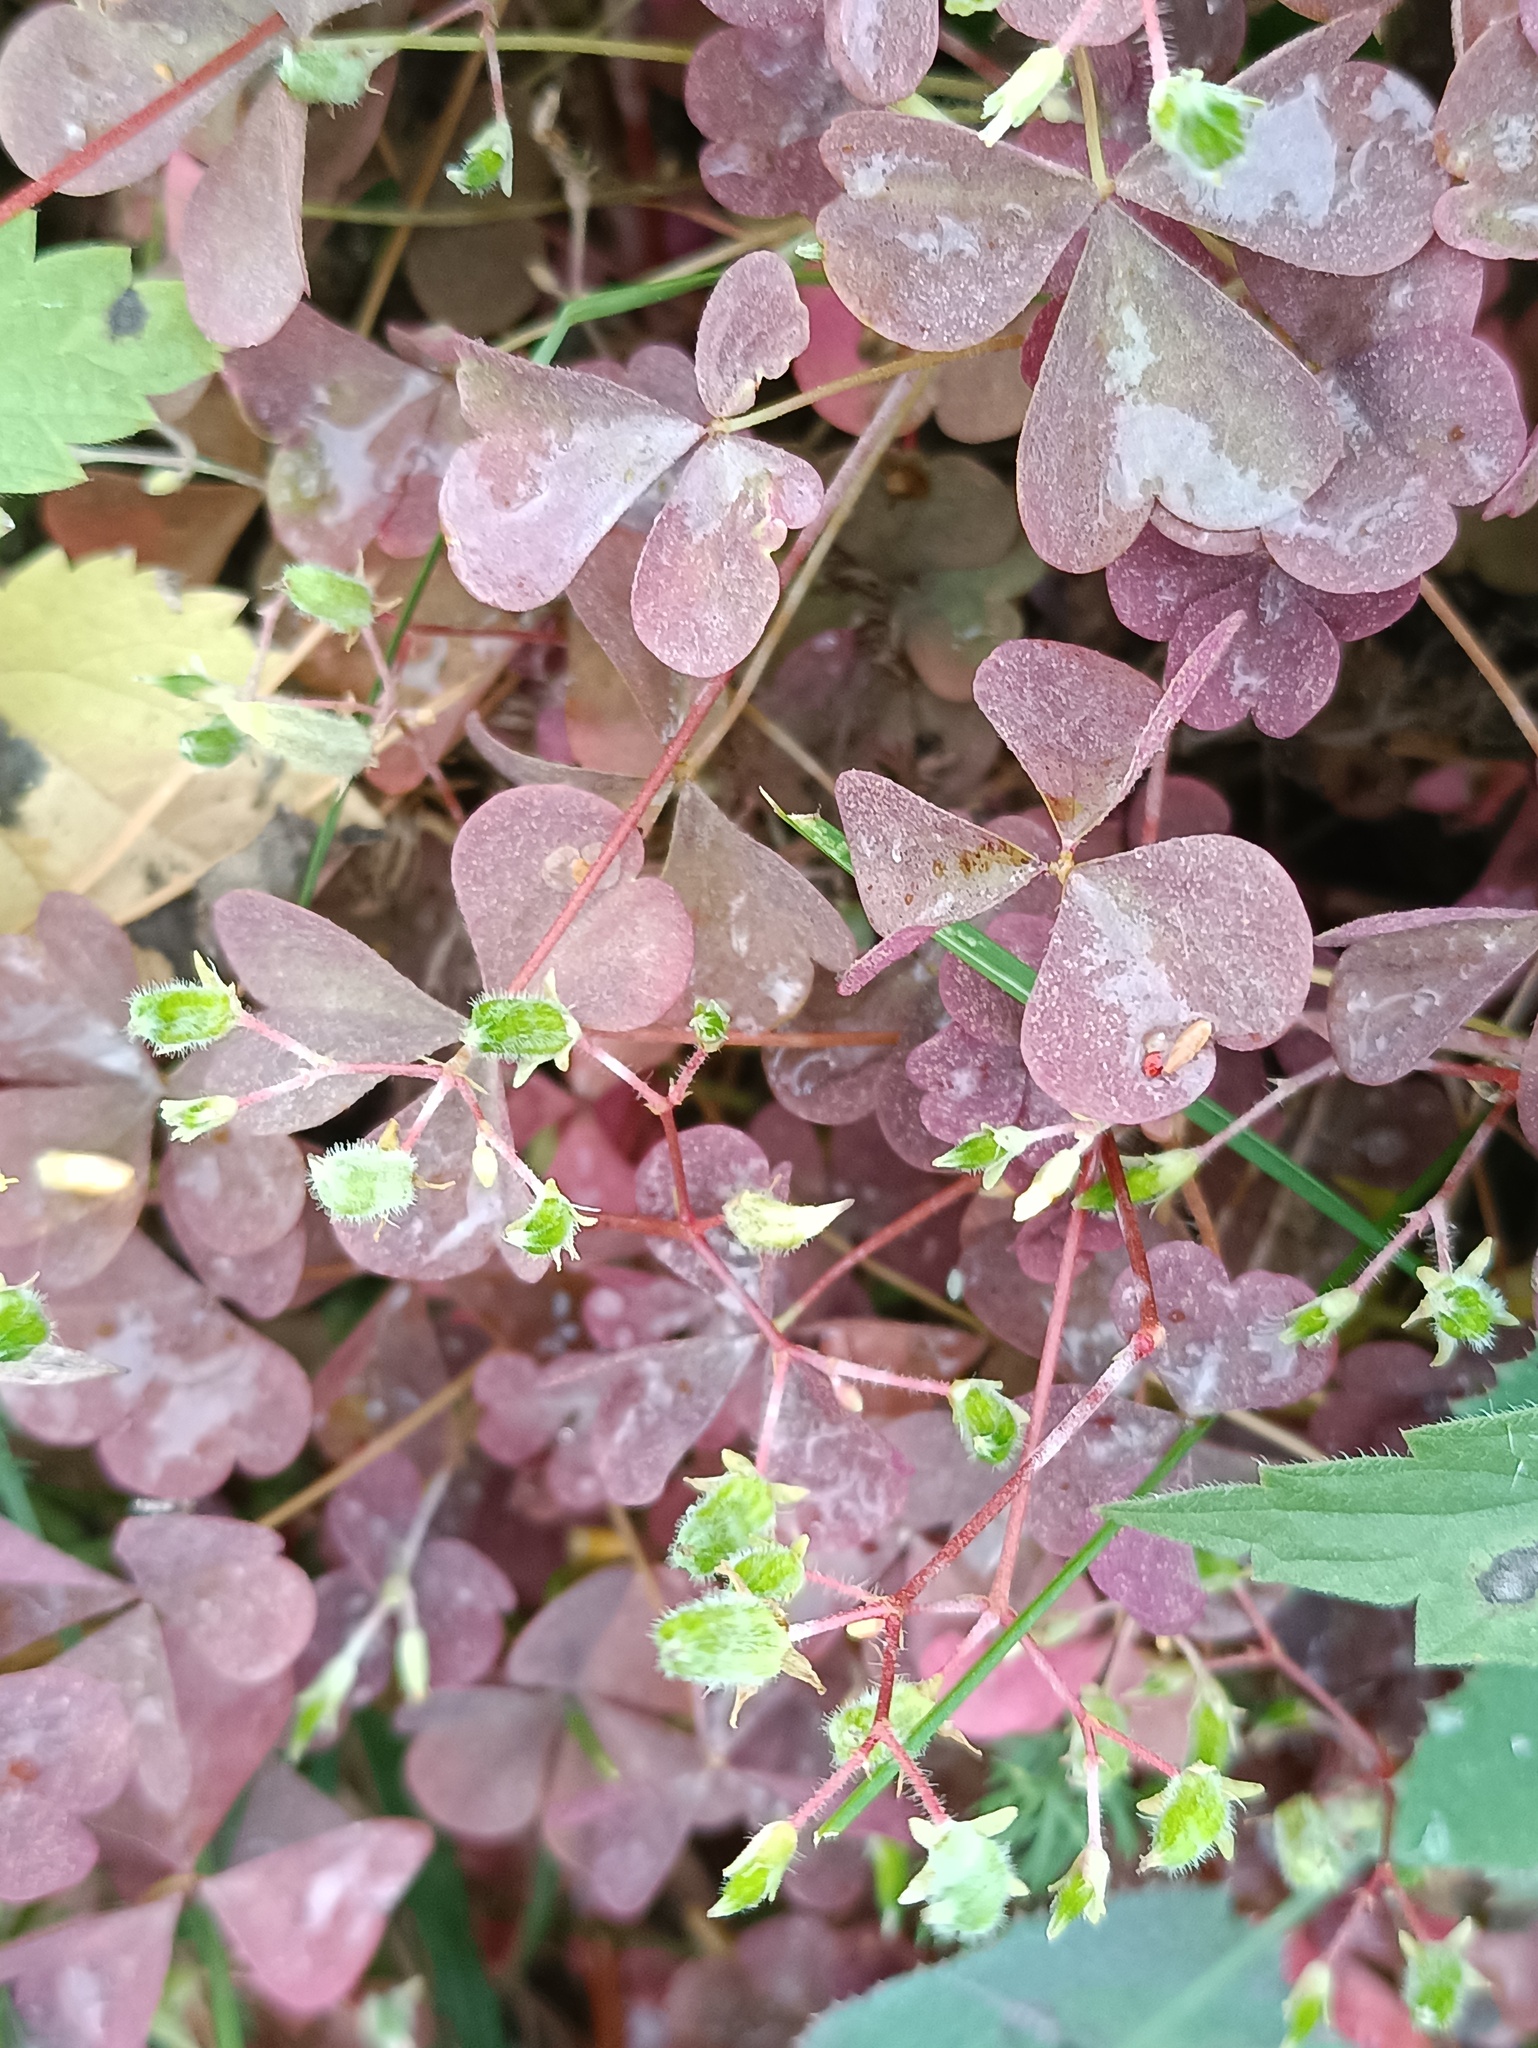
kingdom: Plantae
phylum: Tracheophyta
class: Magnoliopsida
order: Oxalidales
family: Oxalidaceae
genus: Oxalis
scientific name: Oxalis stricta
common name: Upright yellow-sorrel
